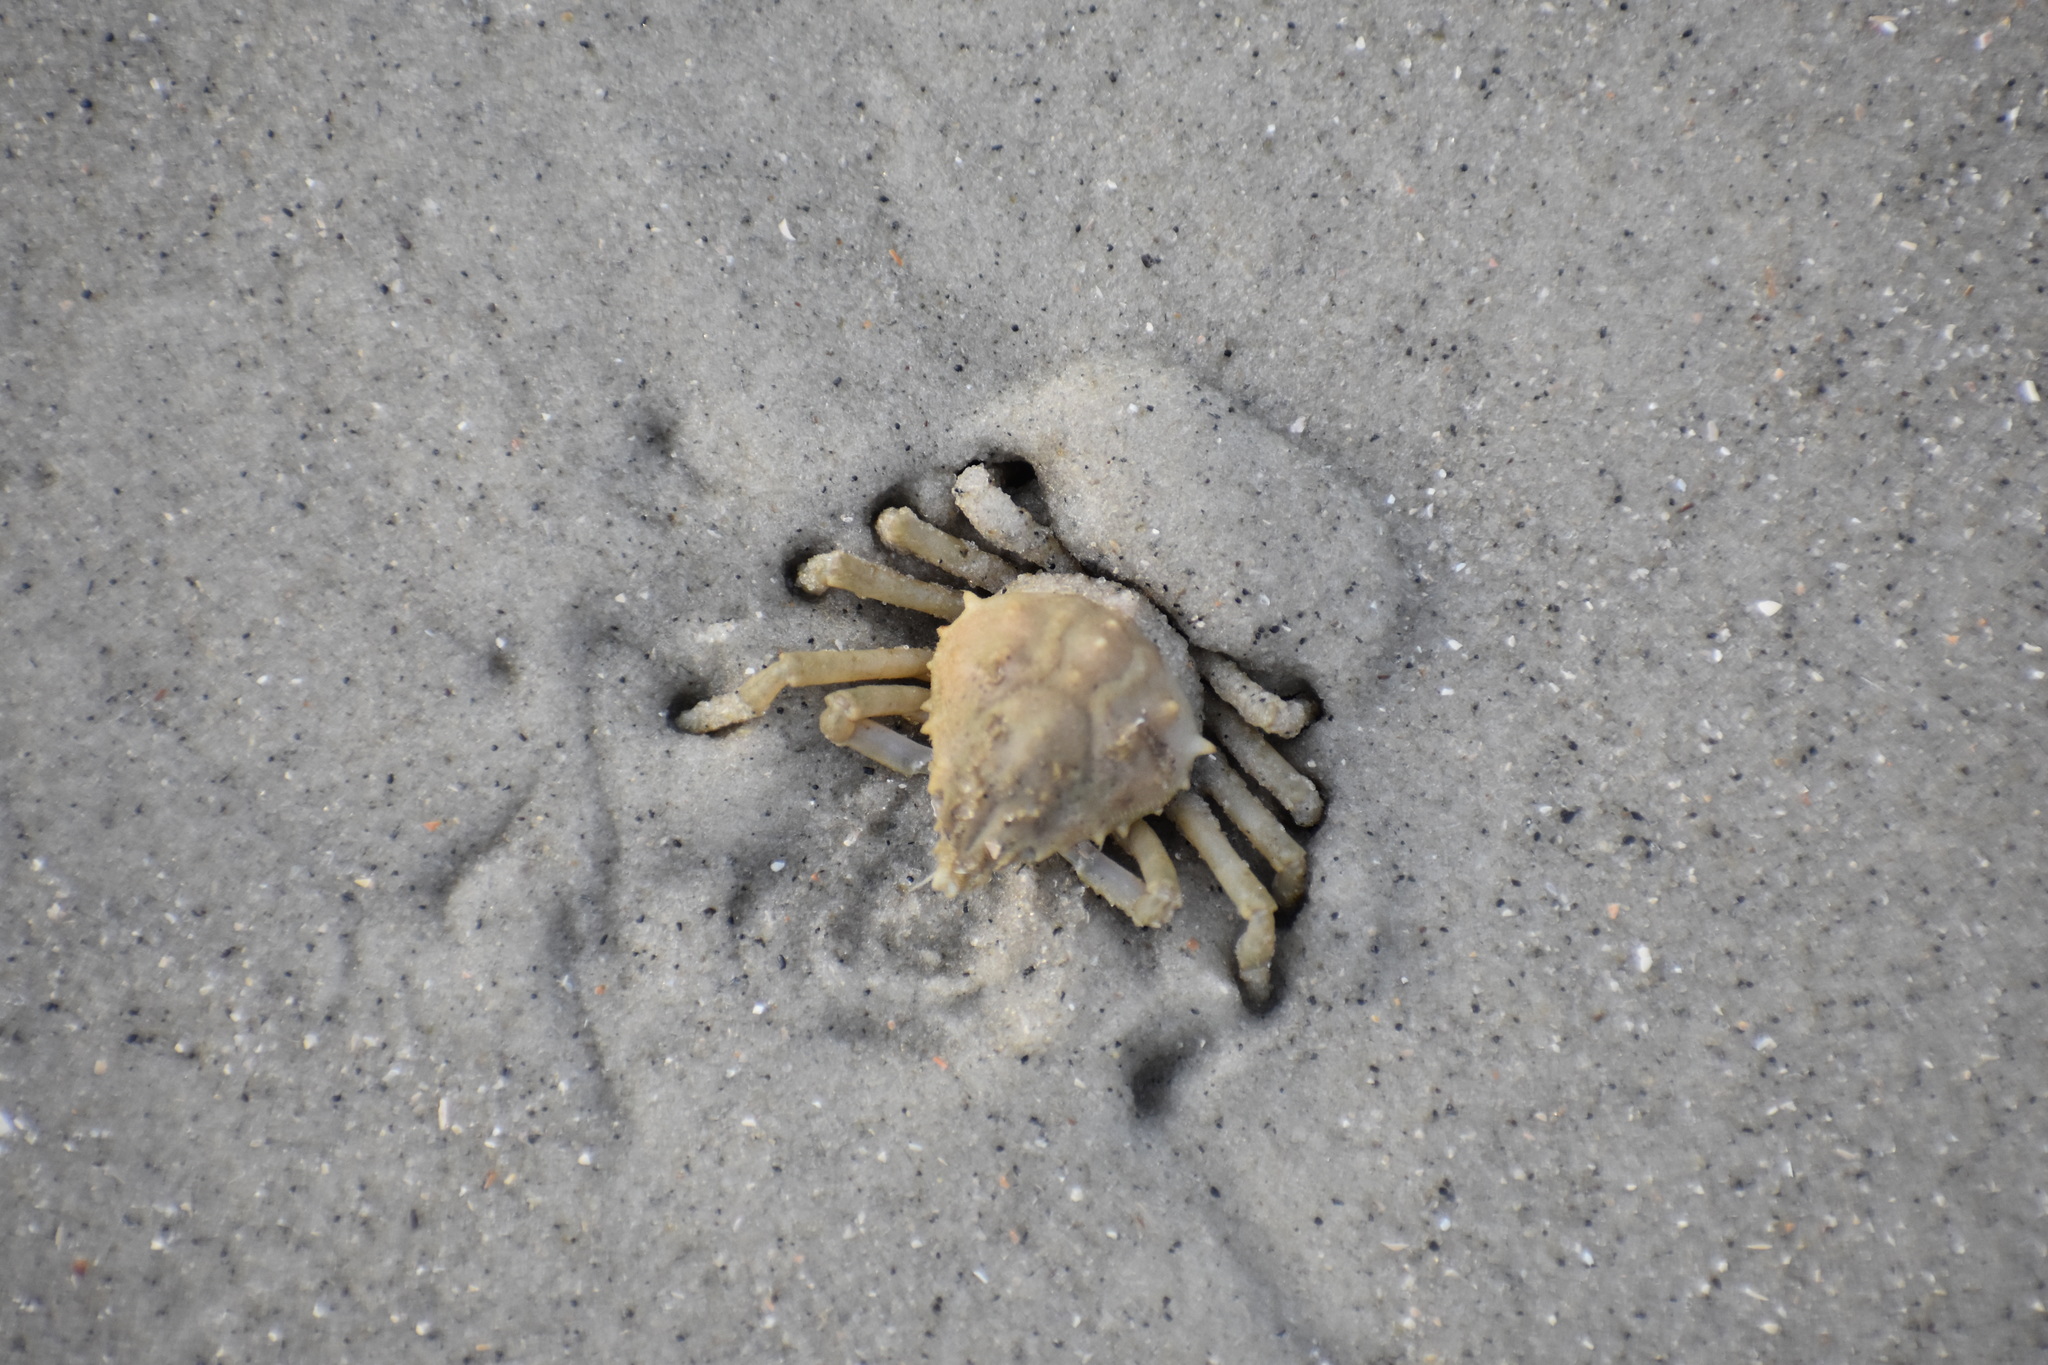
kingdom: Animalia
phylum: Arthropoda
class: Malacostraca
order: Decapoda
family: Epialtidae
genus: Libinia
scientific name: Libinia emarginata
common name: Common spider crab
